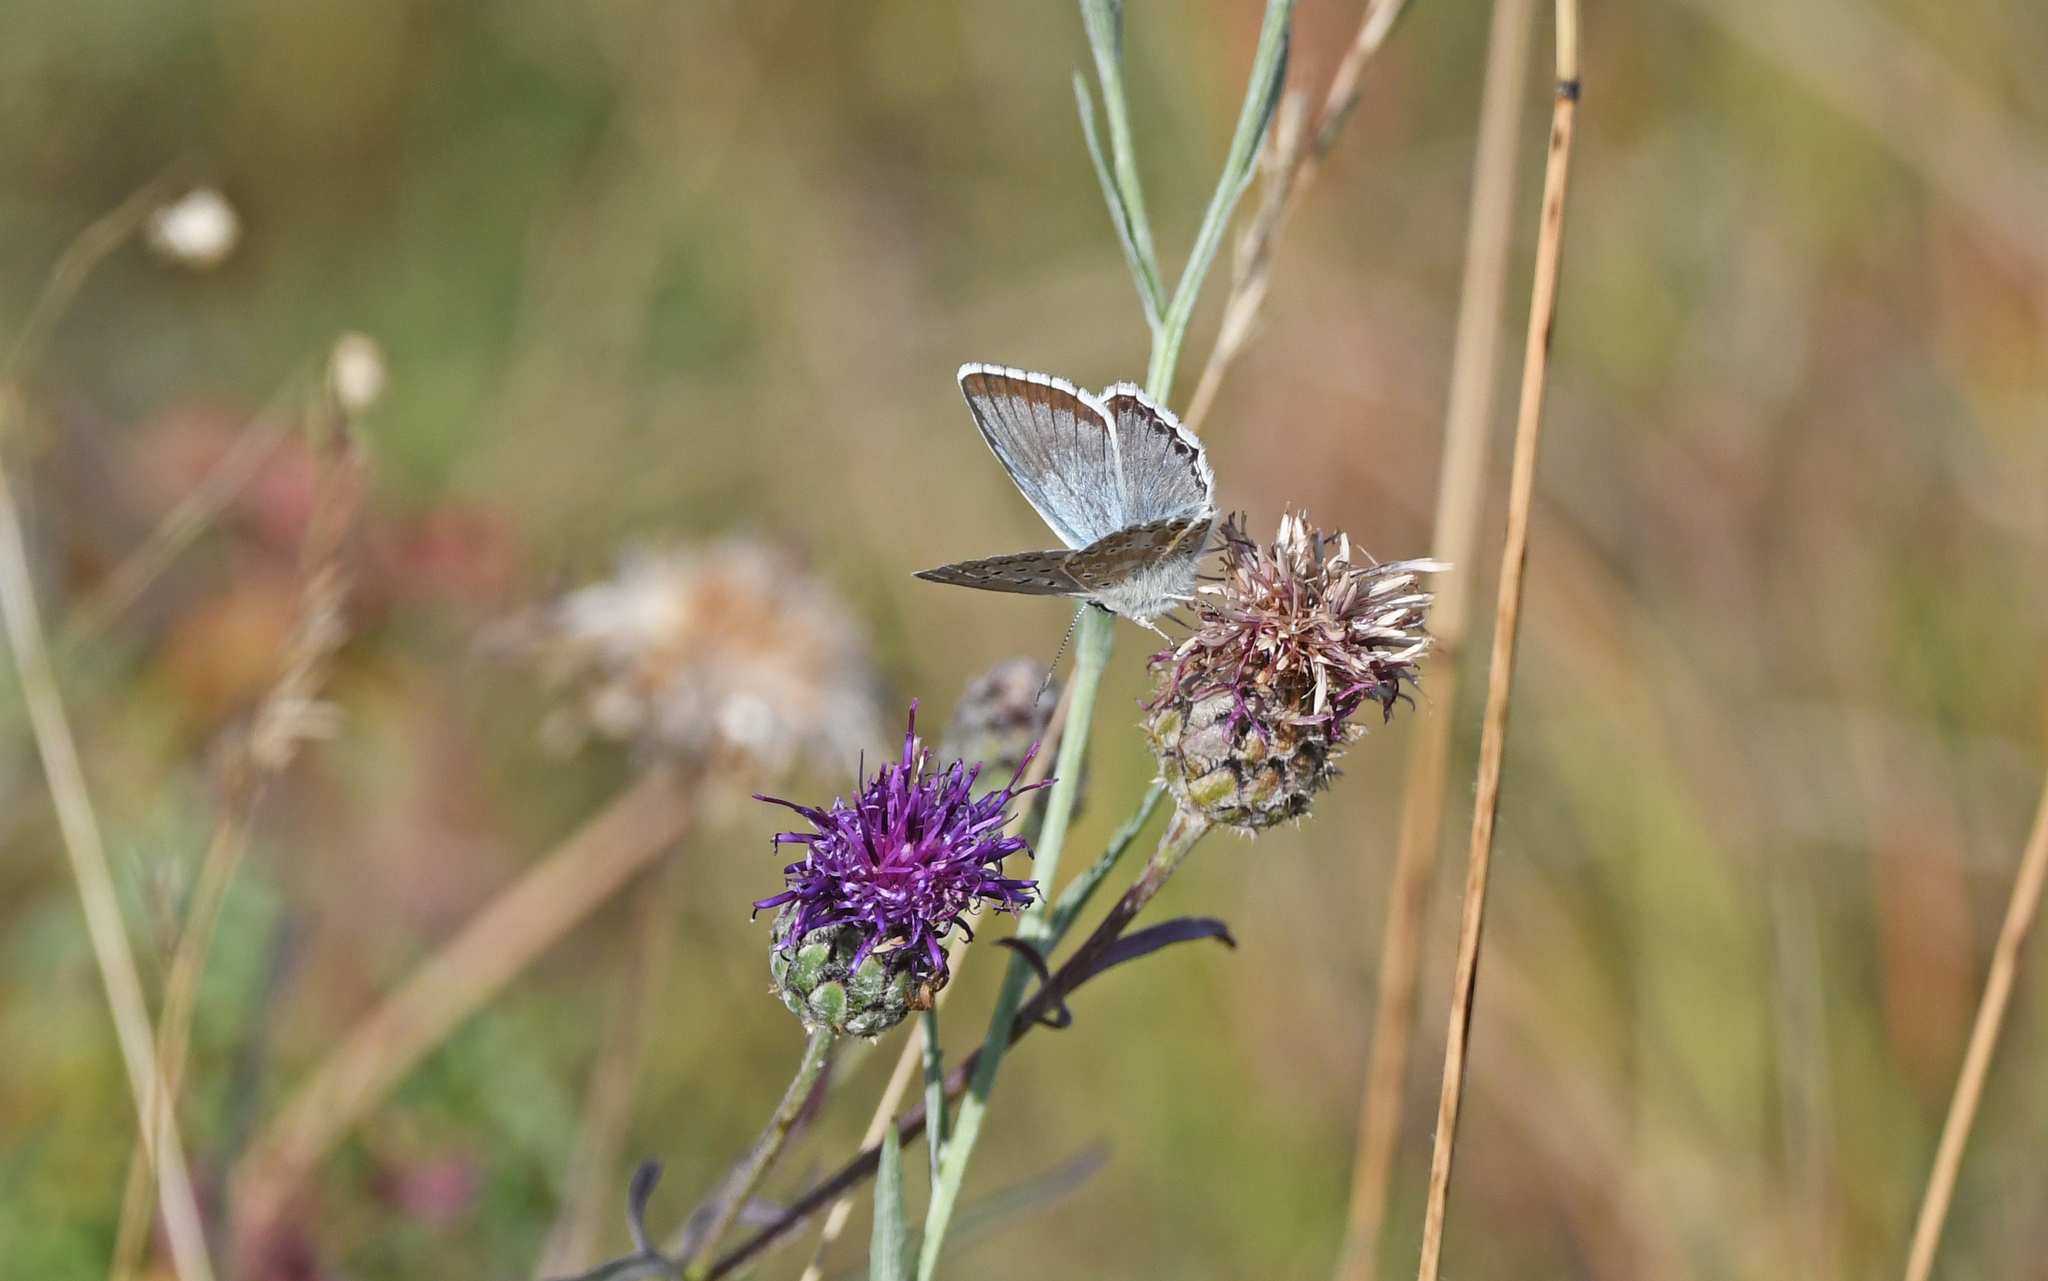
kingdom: Animalia
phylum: Arthropoda
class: Insecta
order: Lepidoptera
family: Lycaenidae
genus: Polyommatus
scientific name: Polyommatus daphnis
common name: Meleager's blue
